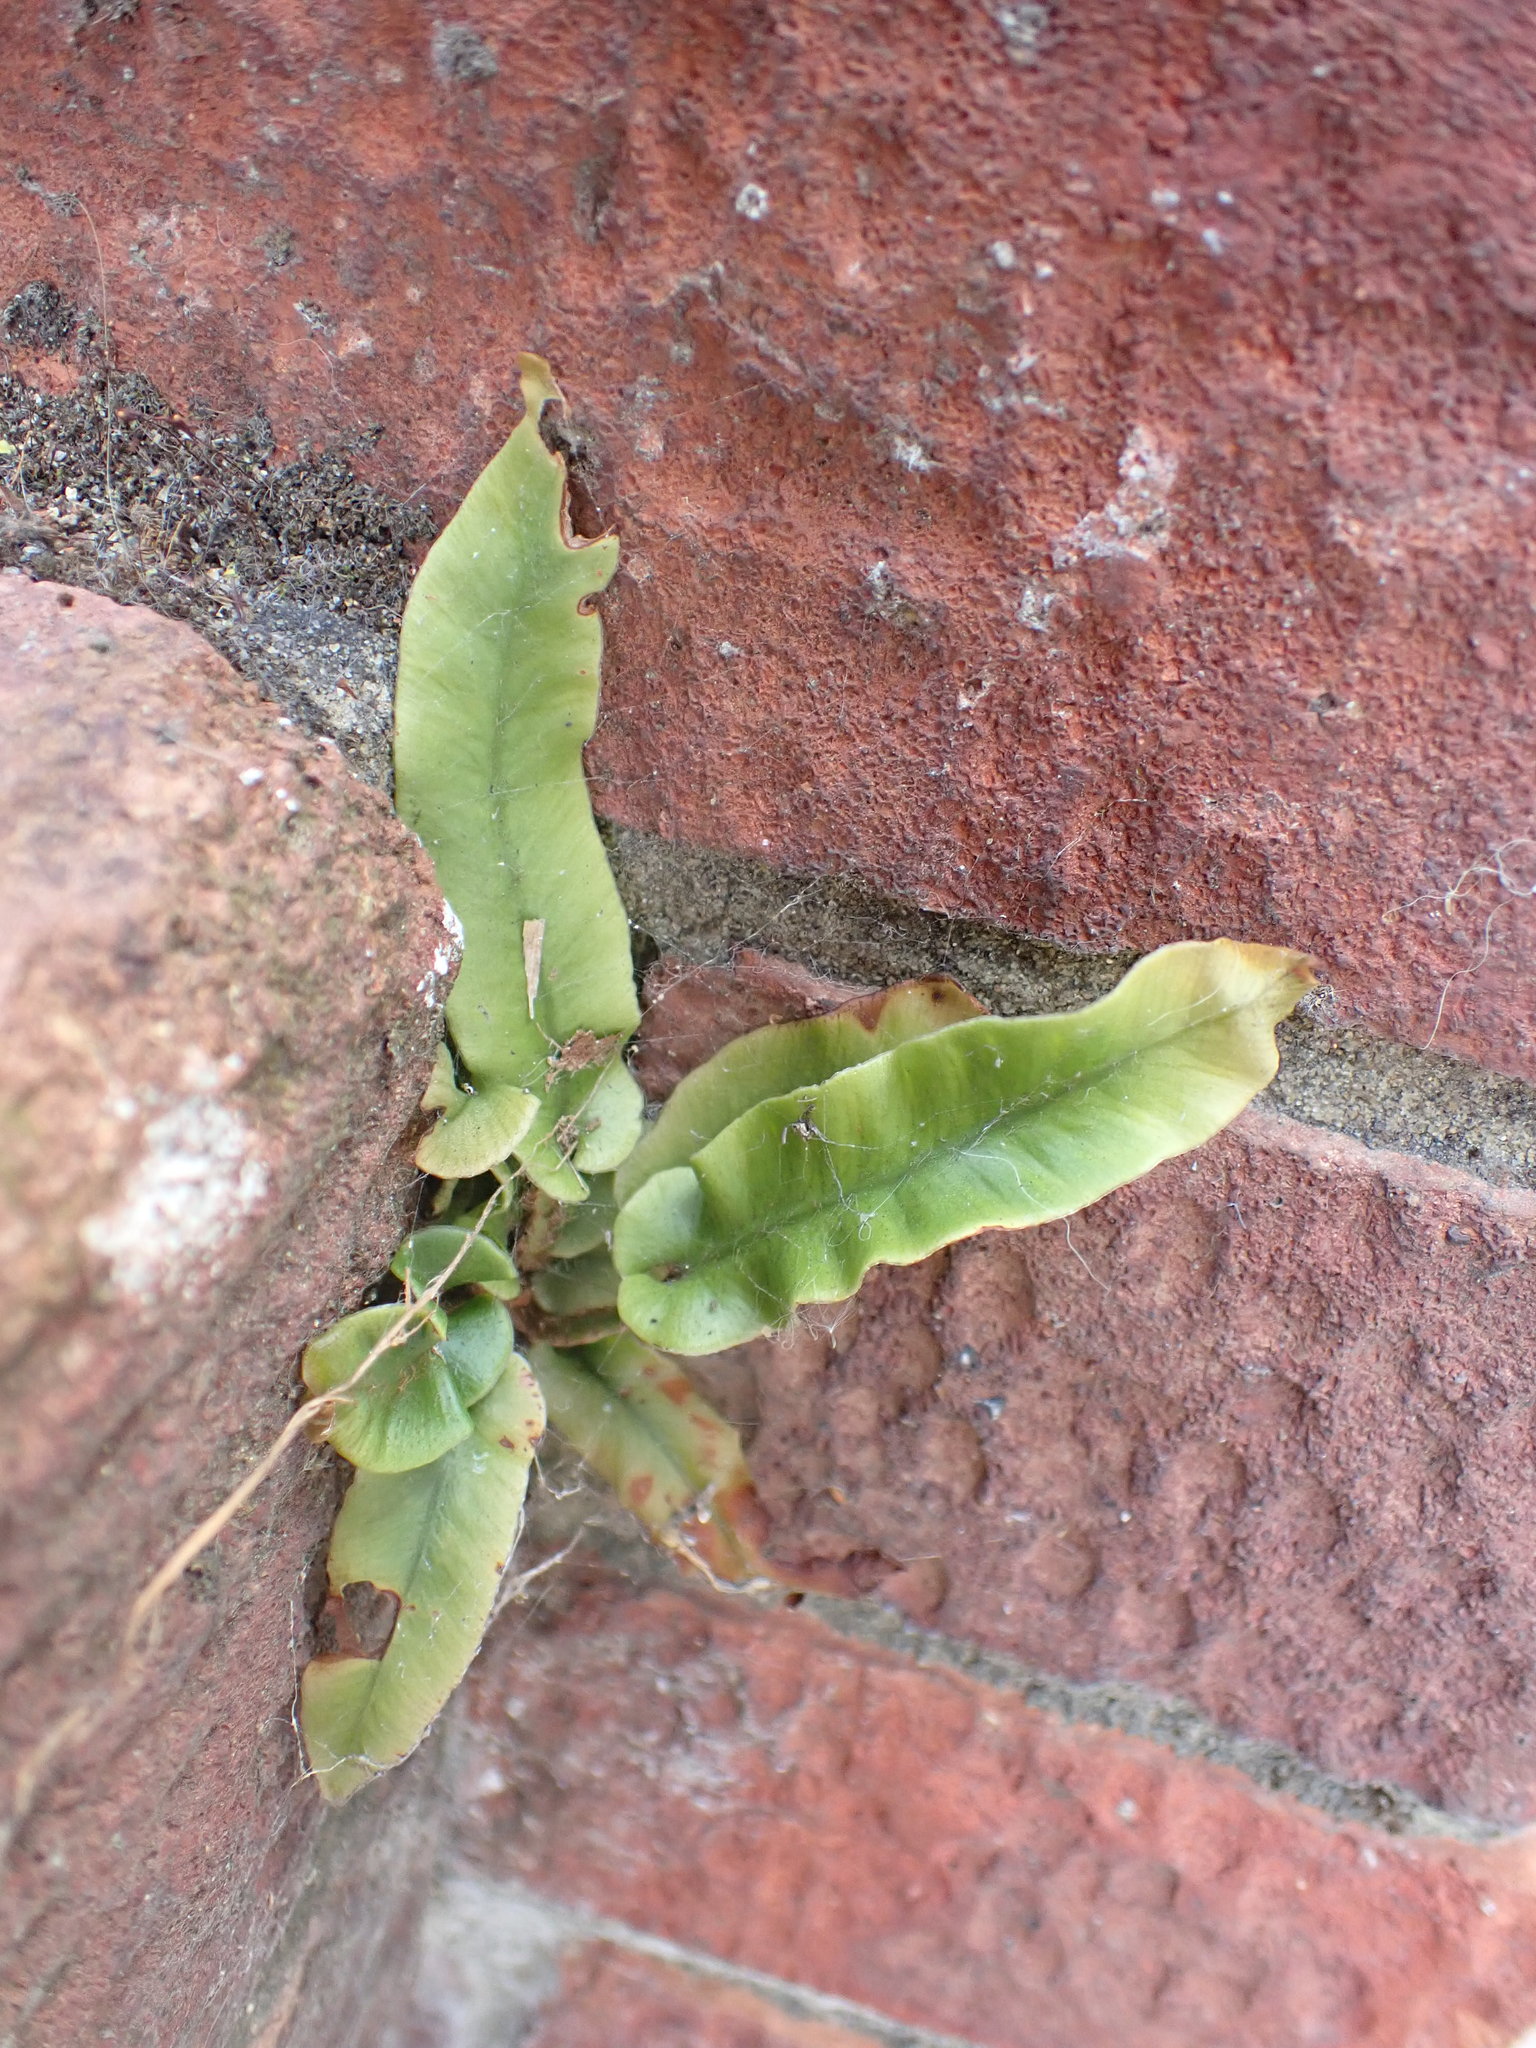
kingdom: Plantae
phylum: Tracheophyta
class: Polypodiopsida
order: Polypodiales
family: Aspleniaceae
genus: Asplenium
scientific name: Asplenium scolopendrium
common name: Hart's-tongue fern
